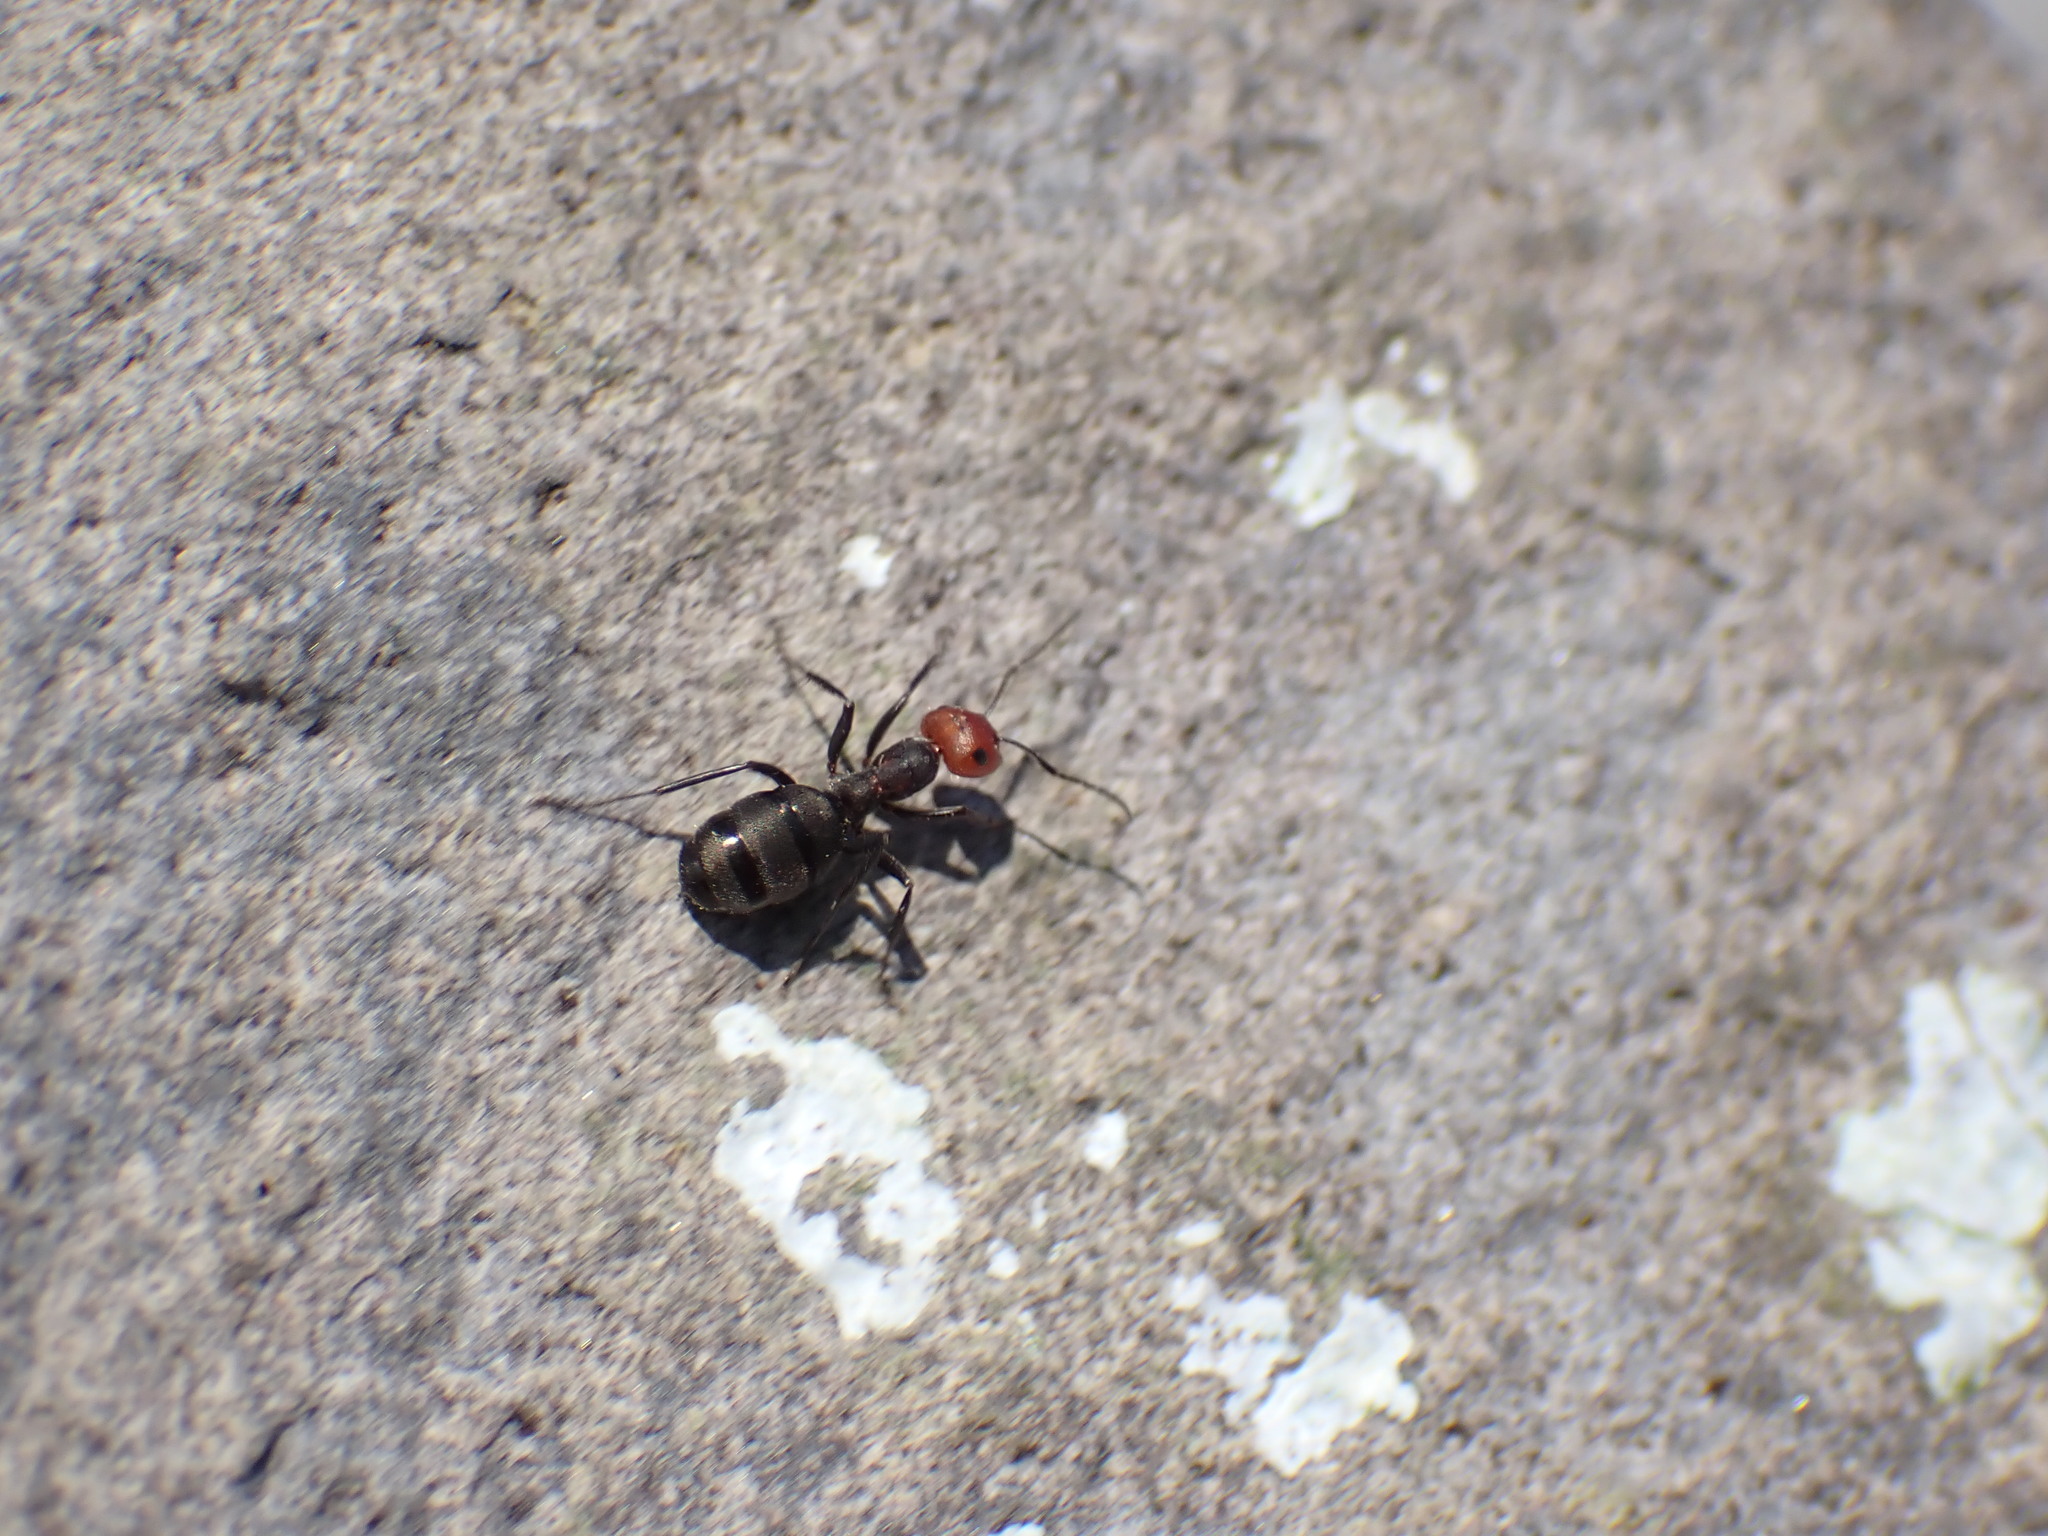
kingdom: Animalia
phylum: Arthropoda
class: Insecta
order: Hymenoptera
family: Formicidae
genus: Formica
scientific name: Formica obscuripes
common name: Western thatching ant
